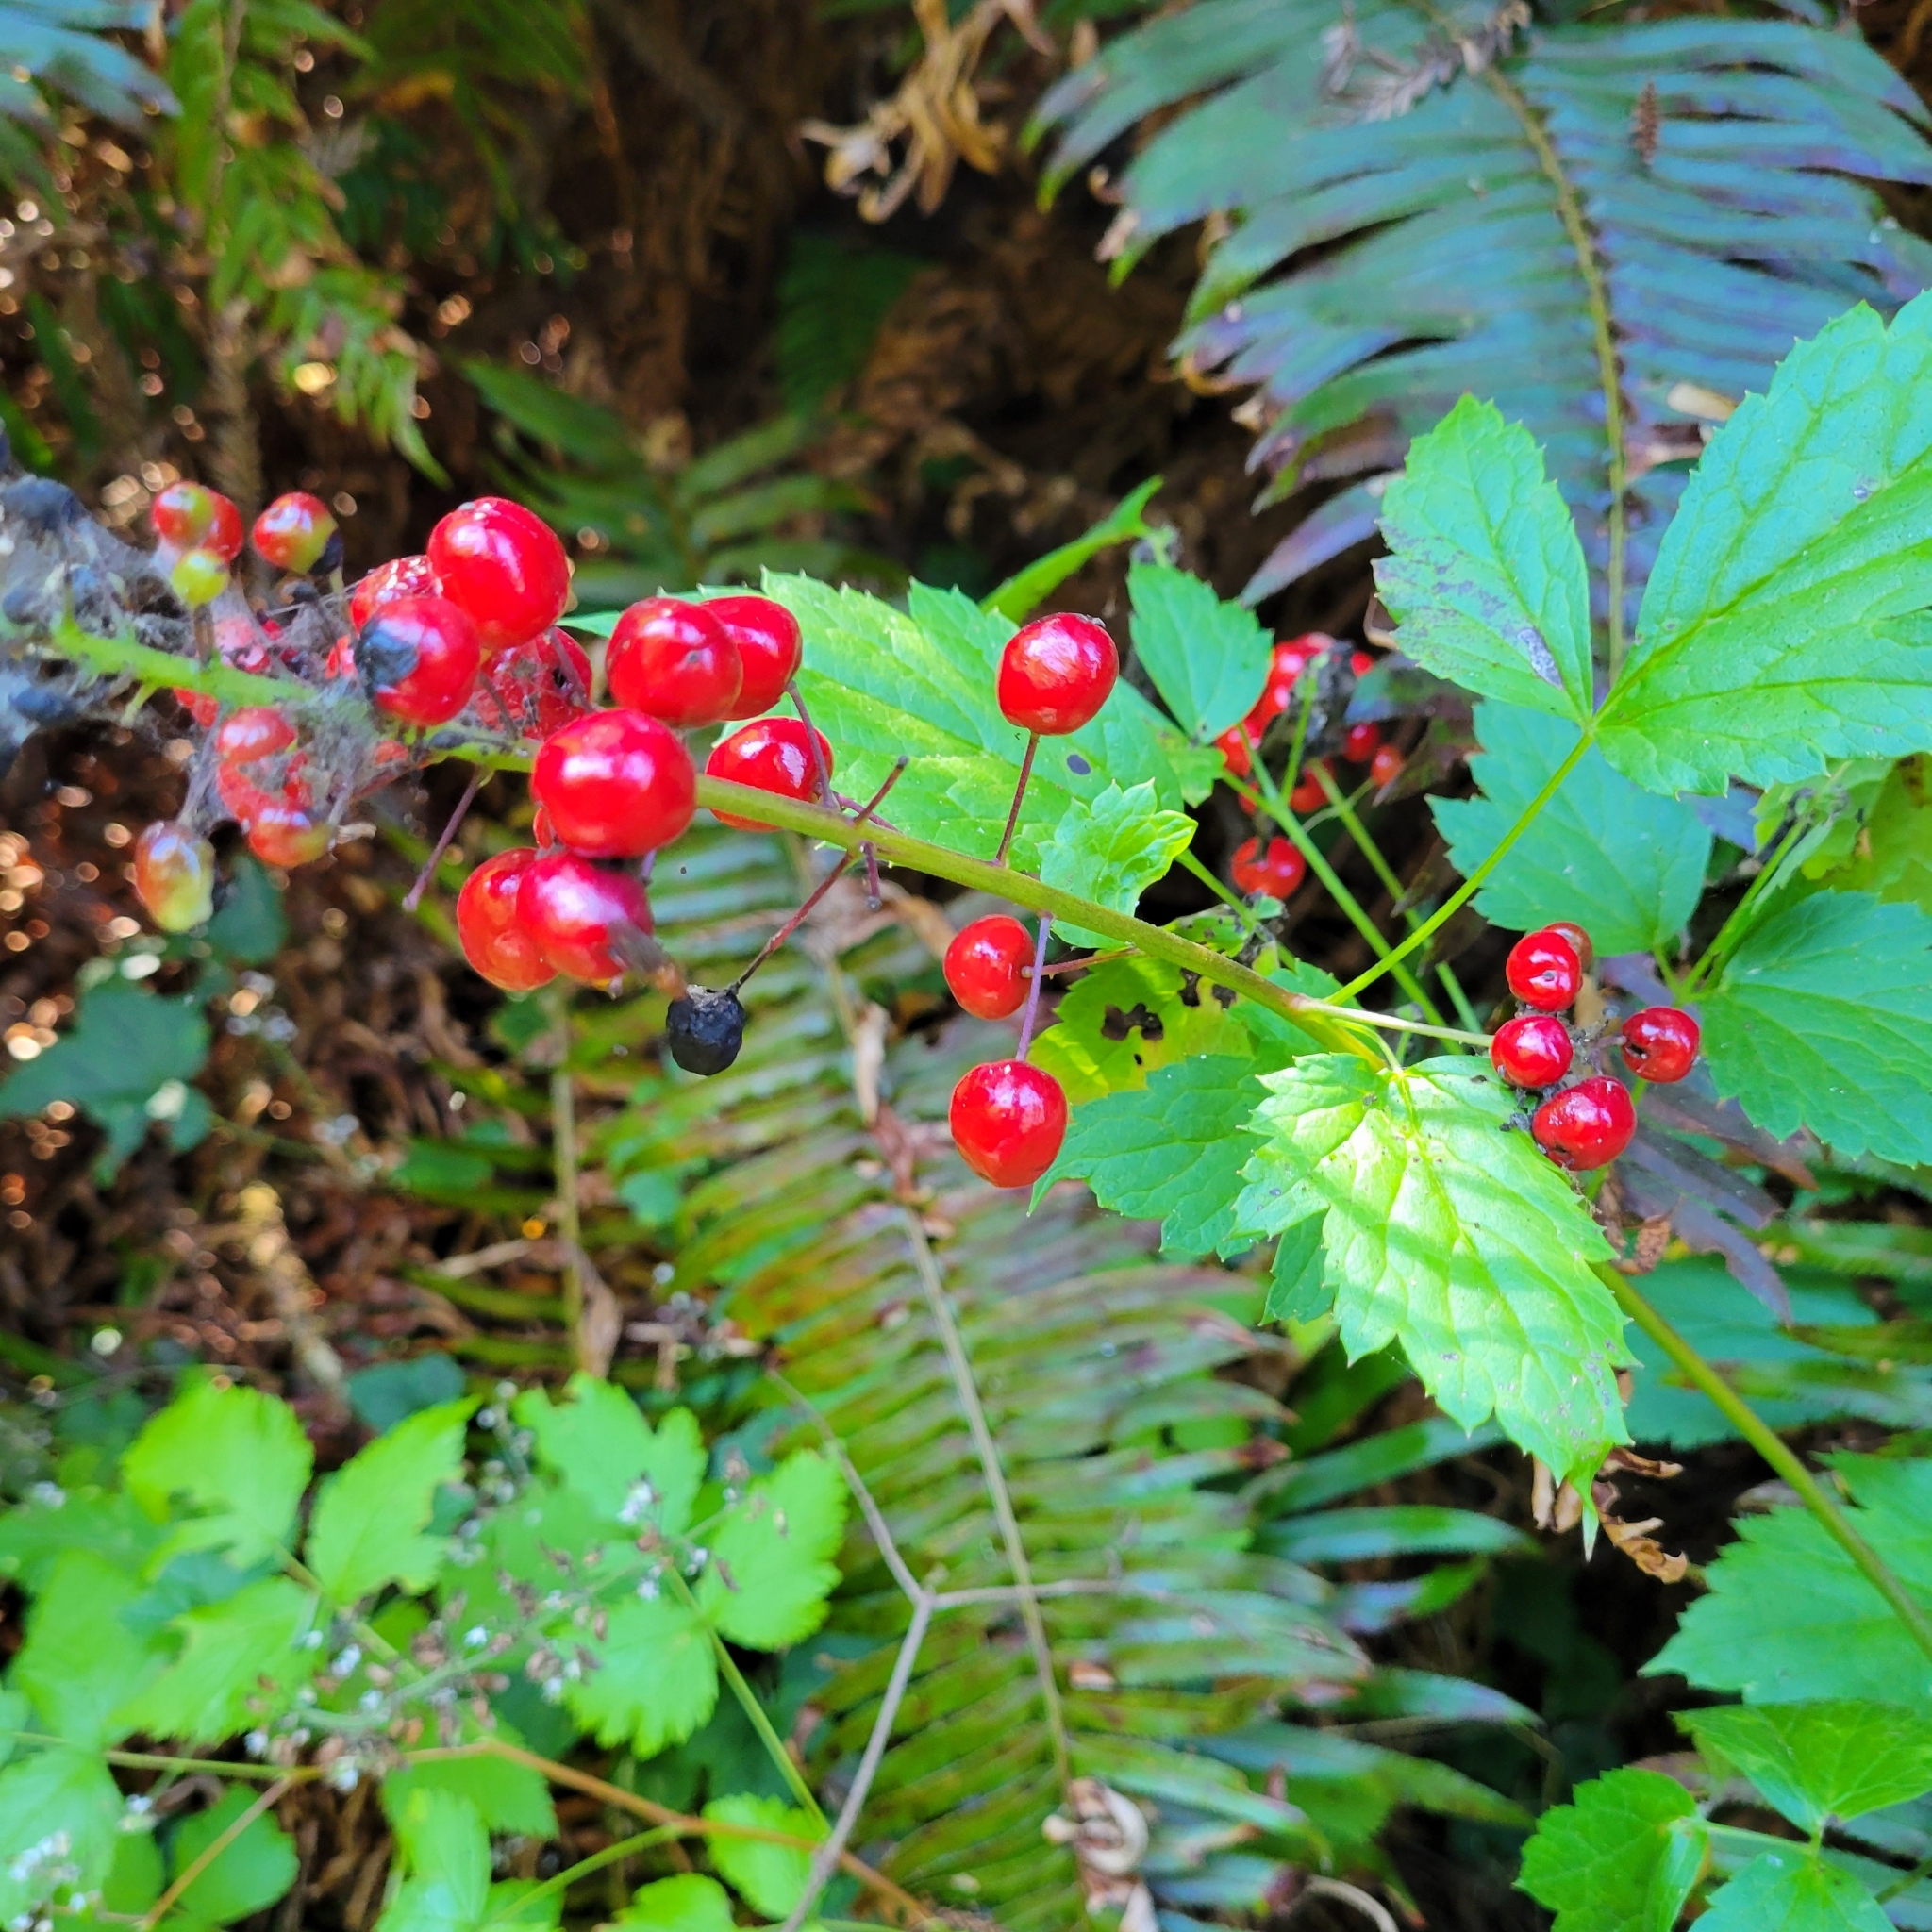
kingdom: Plantae
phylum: Tracheophyta
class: Magnoliopsida
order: Ranunculales
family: Ranunculaceae
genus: Actaea
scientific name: Actaea rubra
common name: Red baneberry
